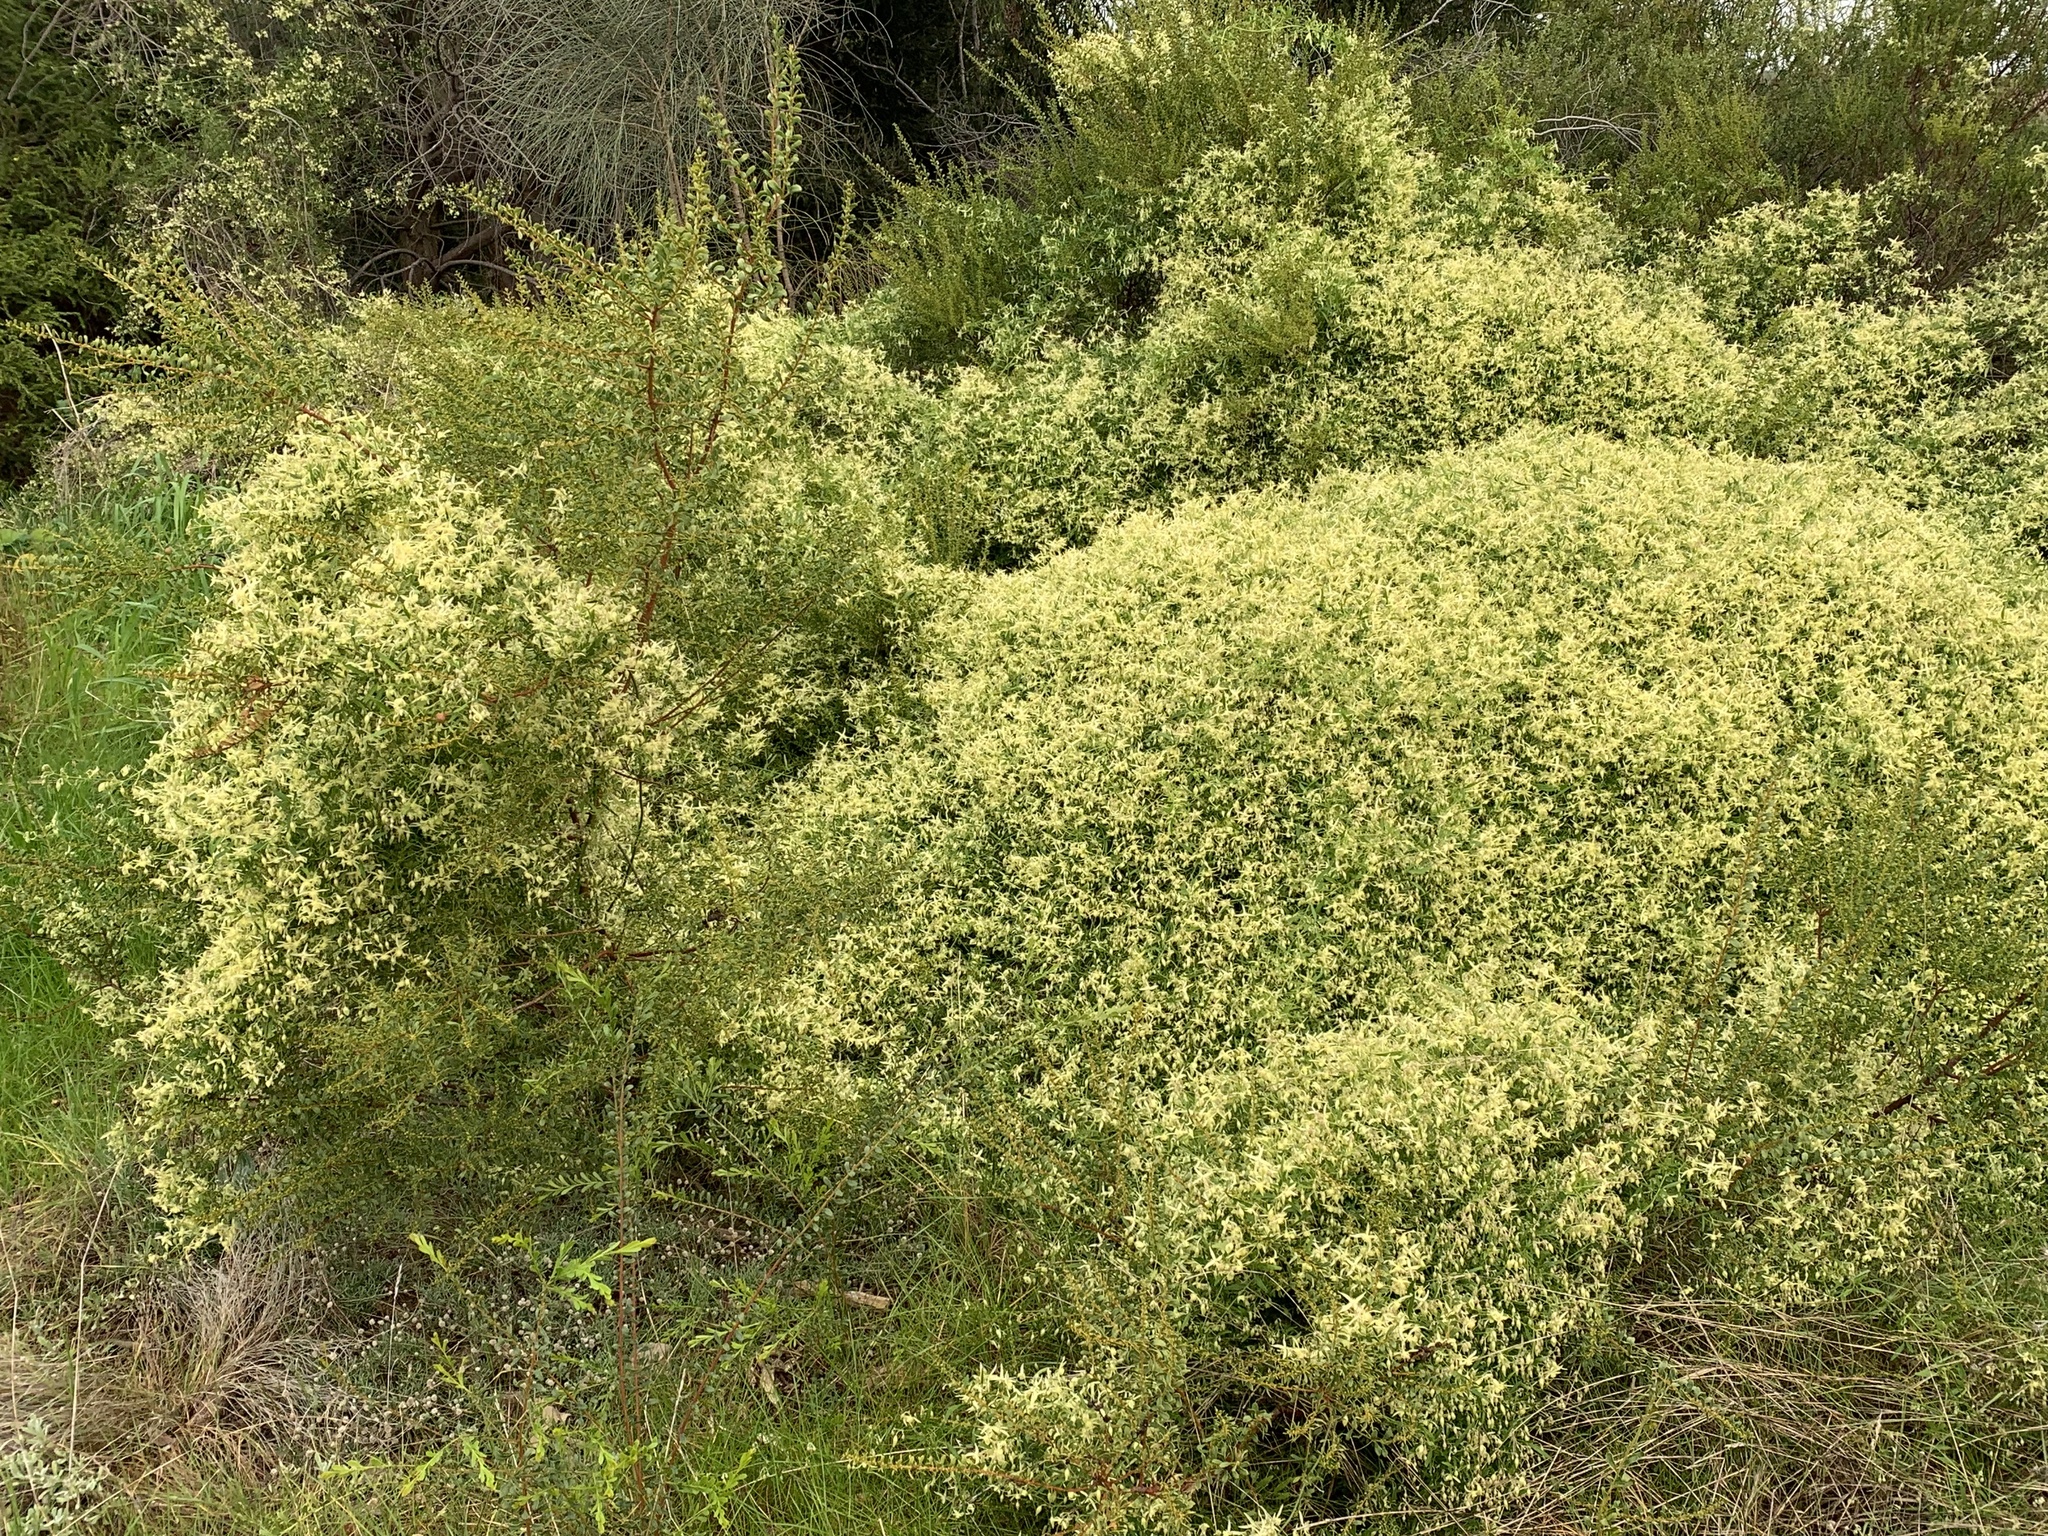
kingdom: Plantae
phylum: Tracheophyta
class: Magnoliopsida
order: Ranunculales
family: Ranunculaceae
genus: Clematis
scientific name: Clematis microphylla
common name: Headachevine
